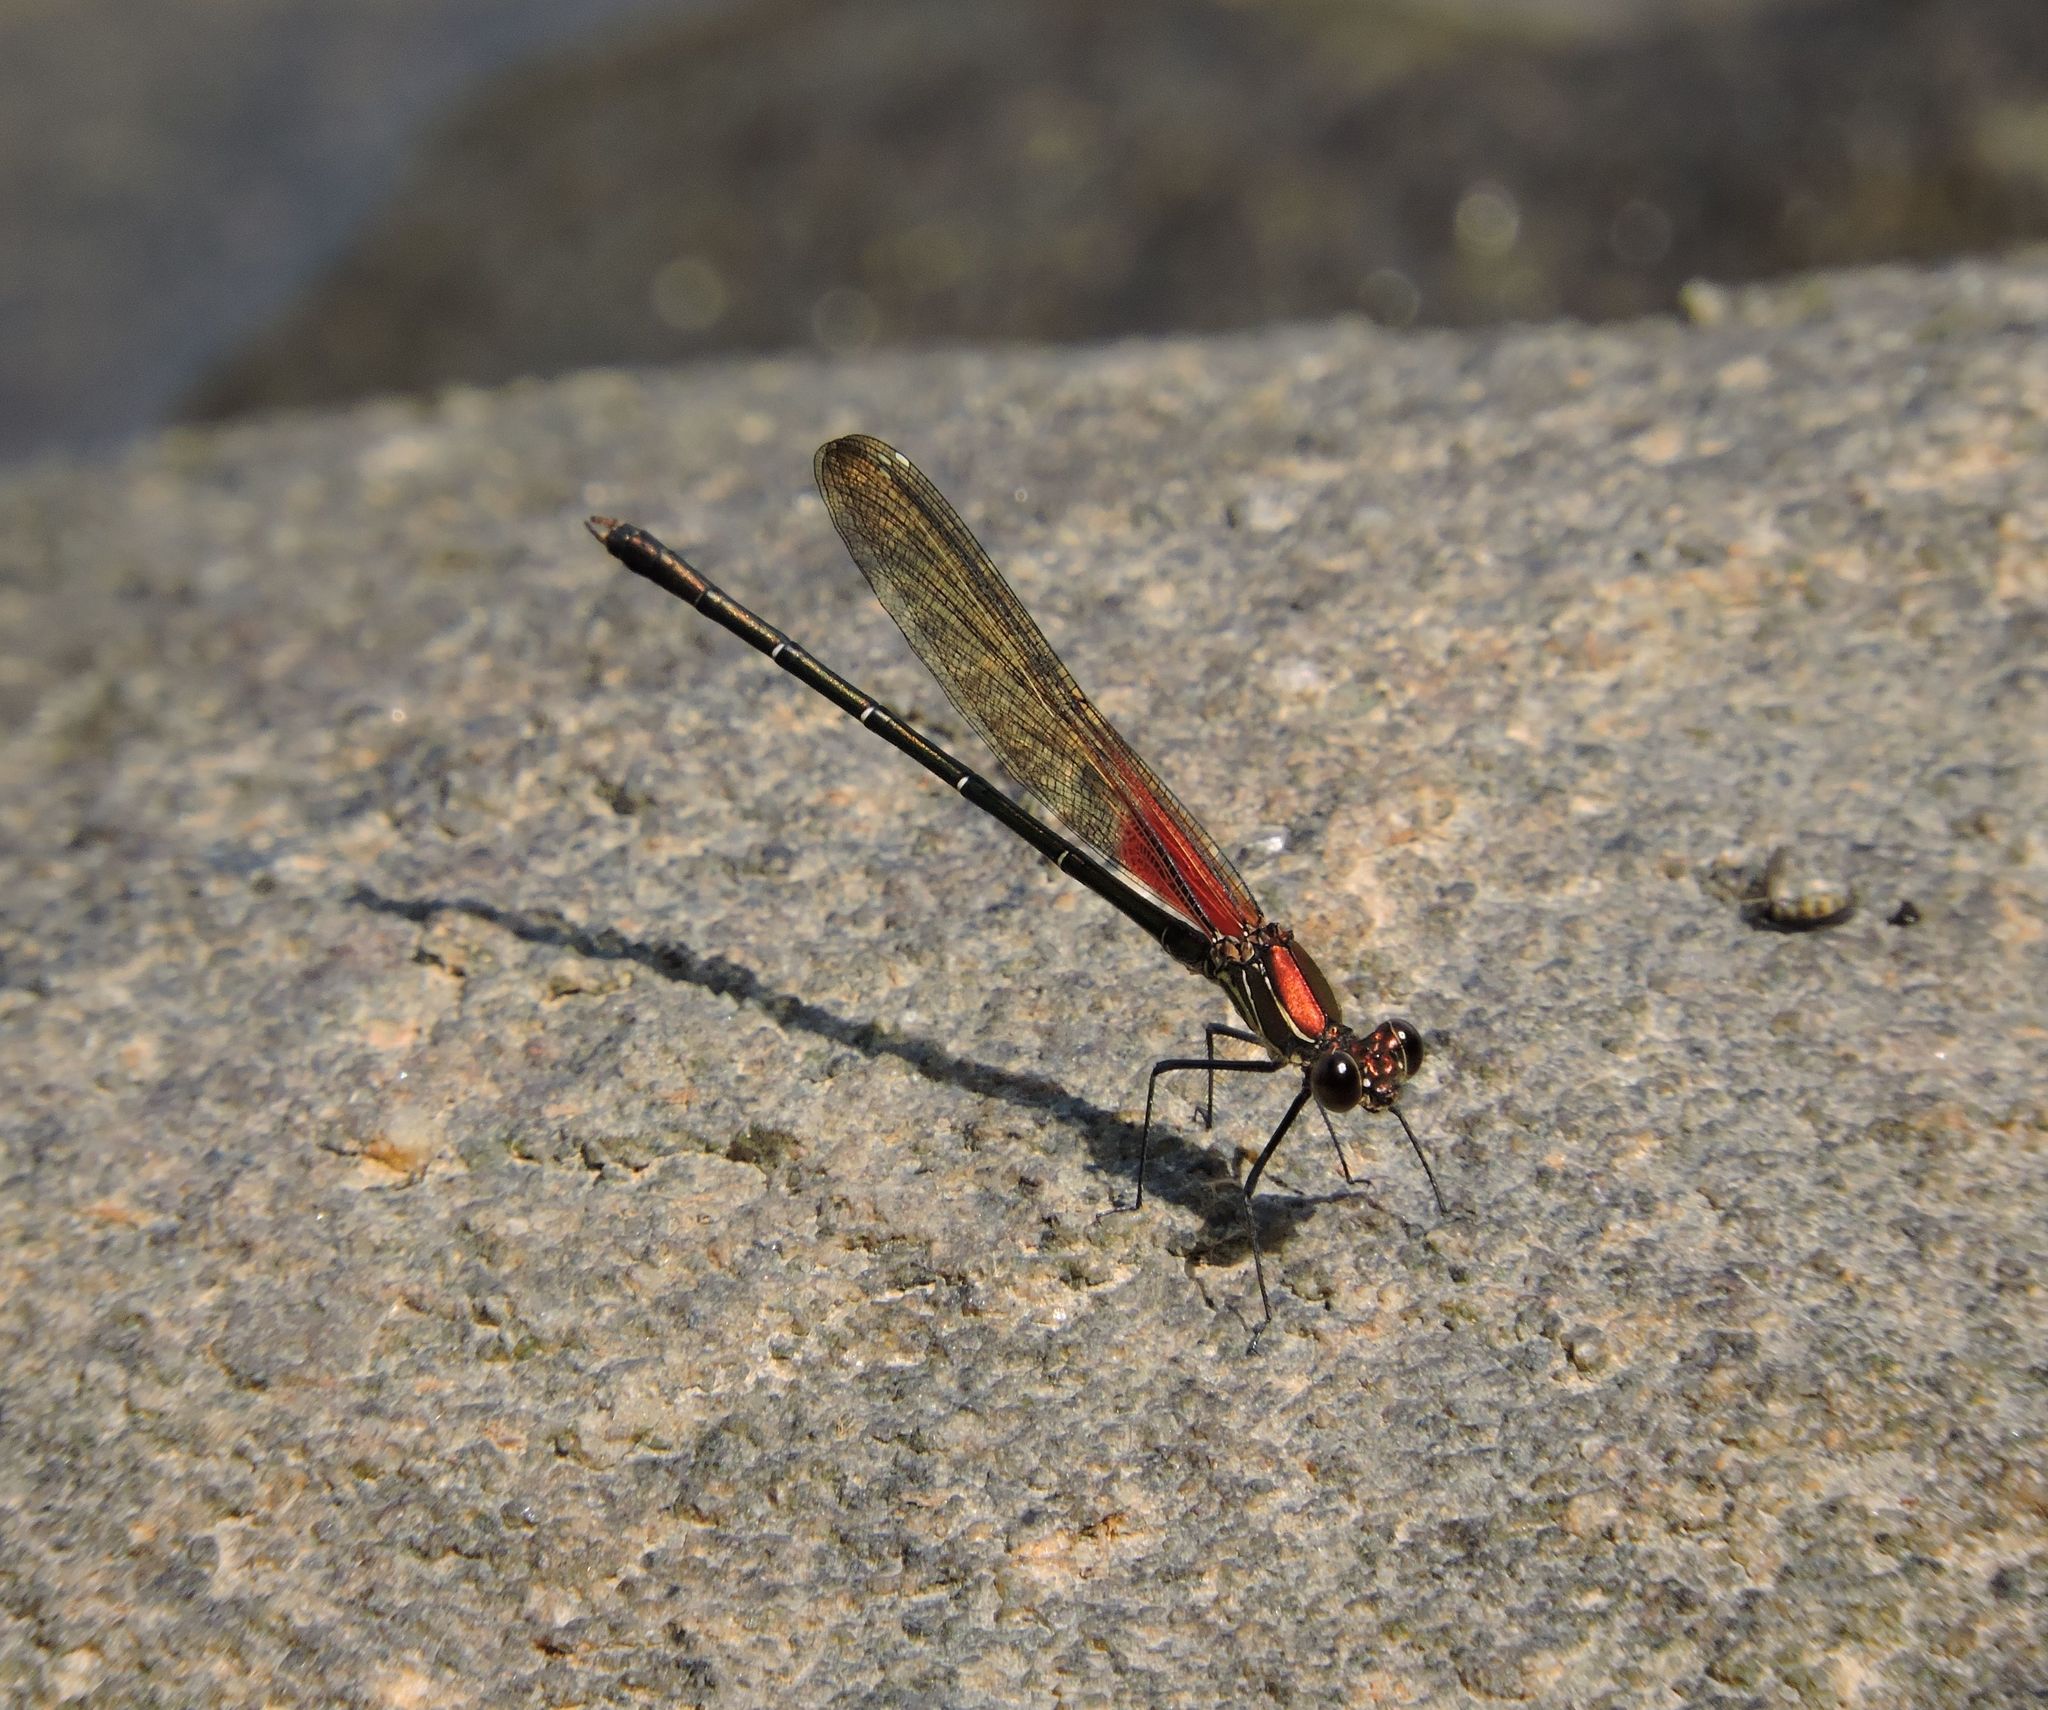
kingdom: Animalia
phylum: Arthropoda
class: Insecta
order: Odonata
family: Calopterygidae
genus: Hetaerina
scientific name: Hetaerina americana
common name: American rubyspot
